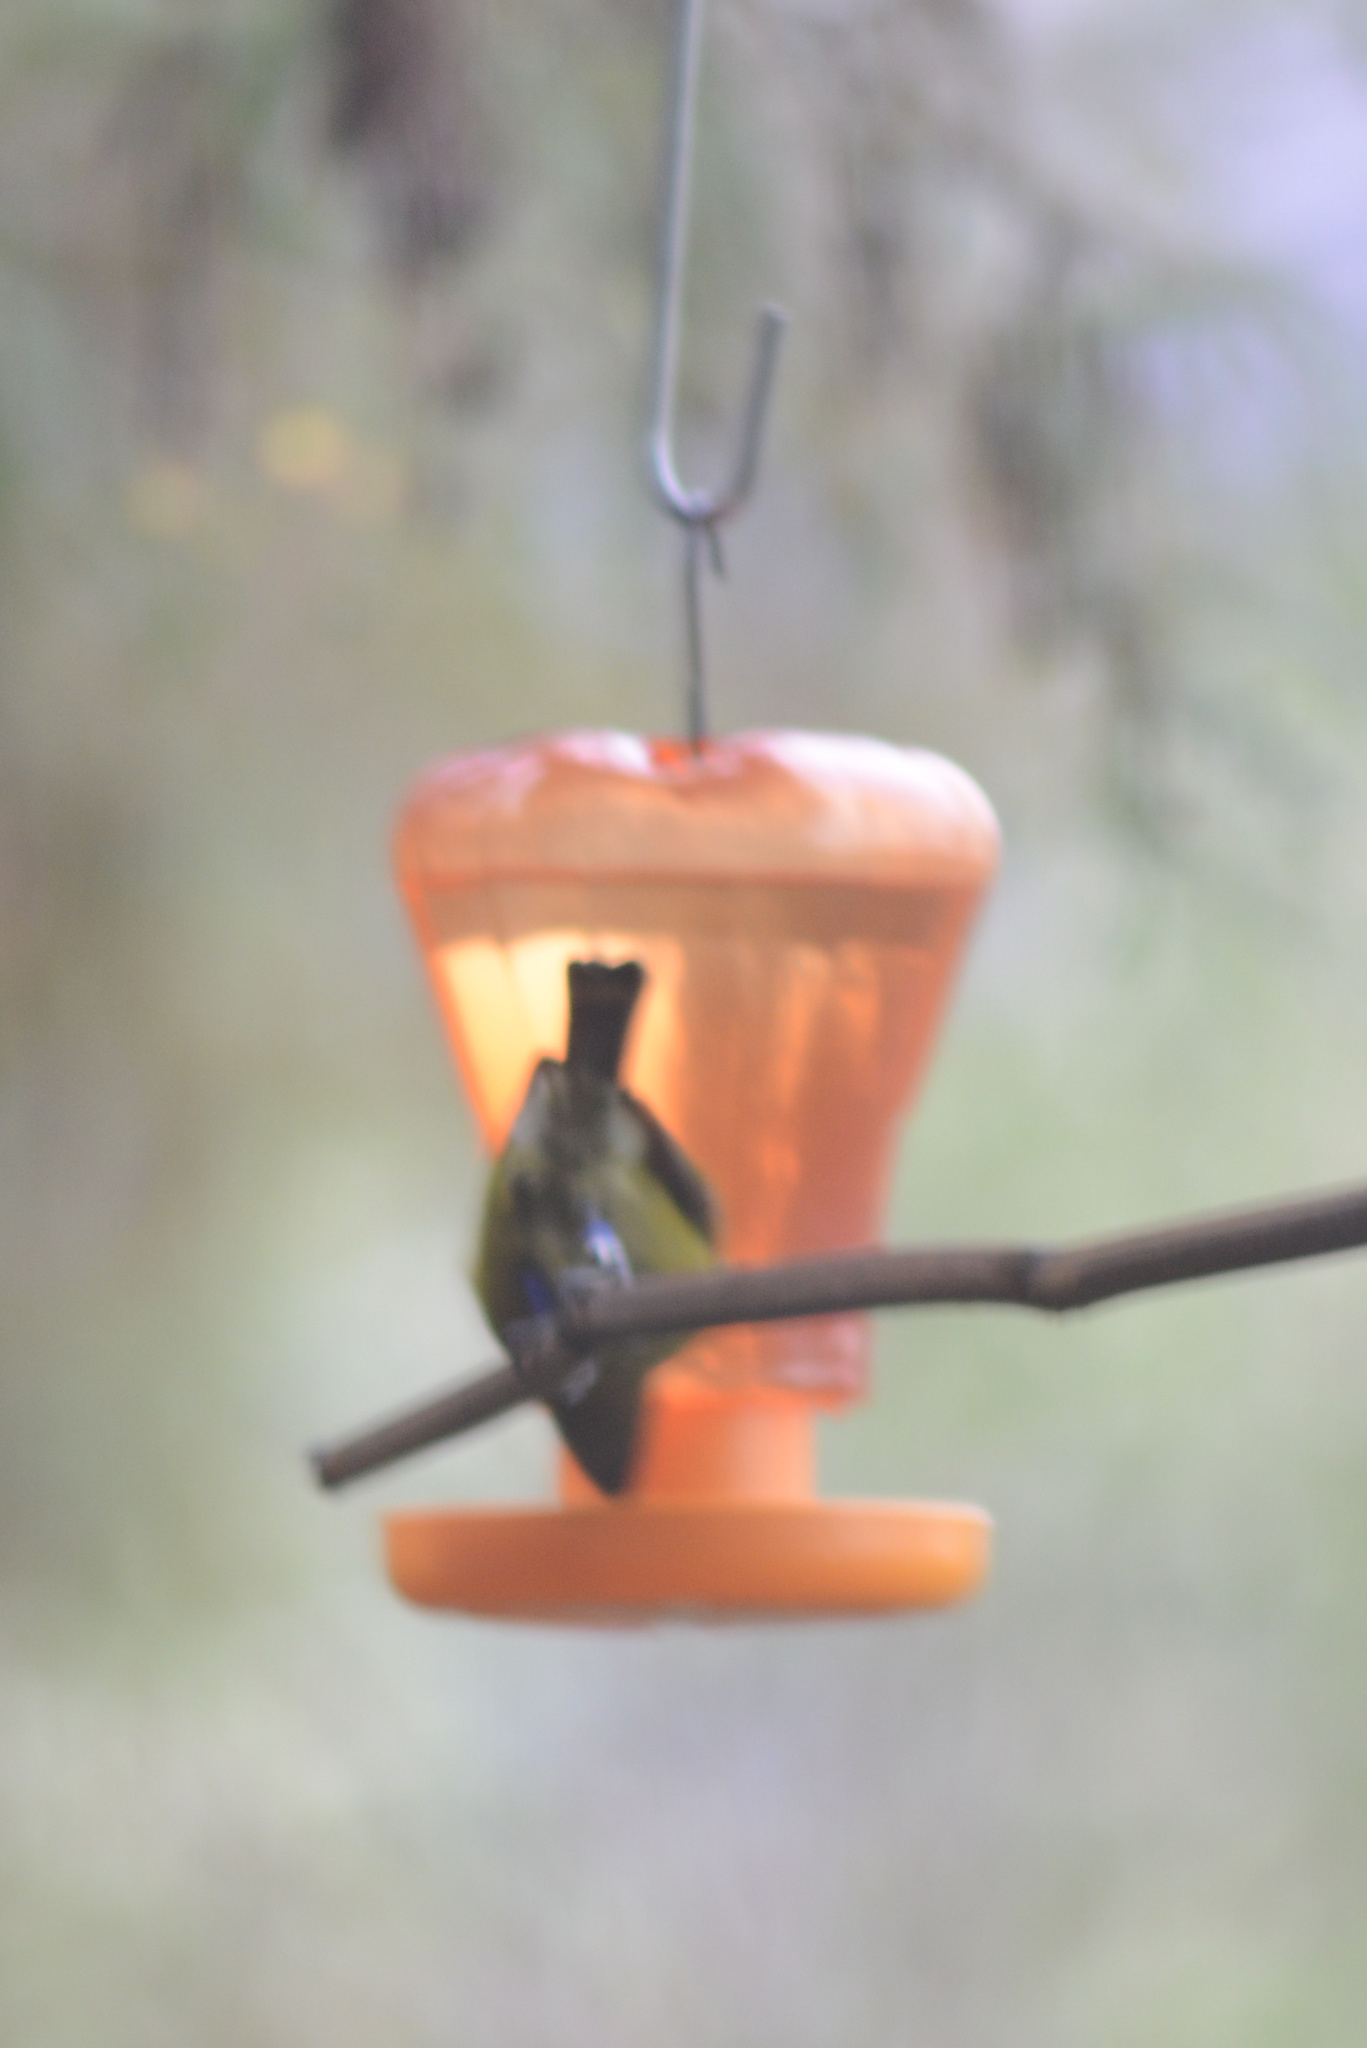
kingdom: Animalia
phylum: Chordata
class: Aves
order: Passeriformes
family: Meliphagidae
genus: Anthornis
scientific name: Anthornis melanura
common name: New zealand bellbird
